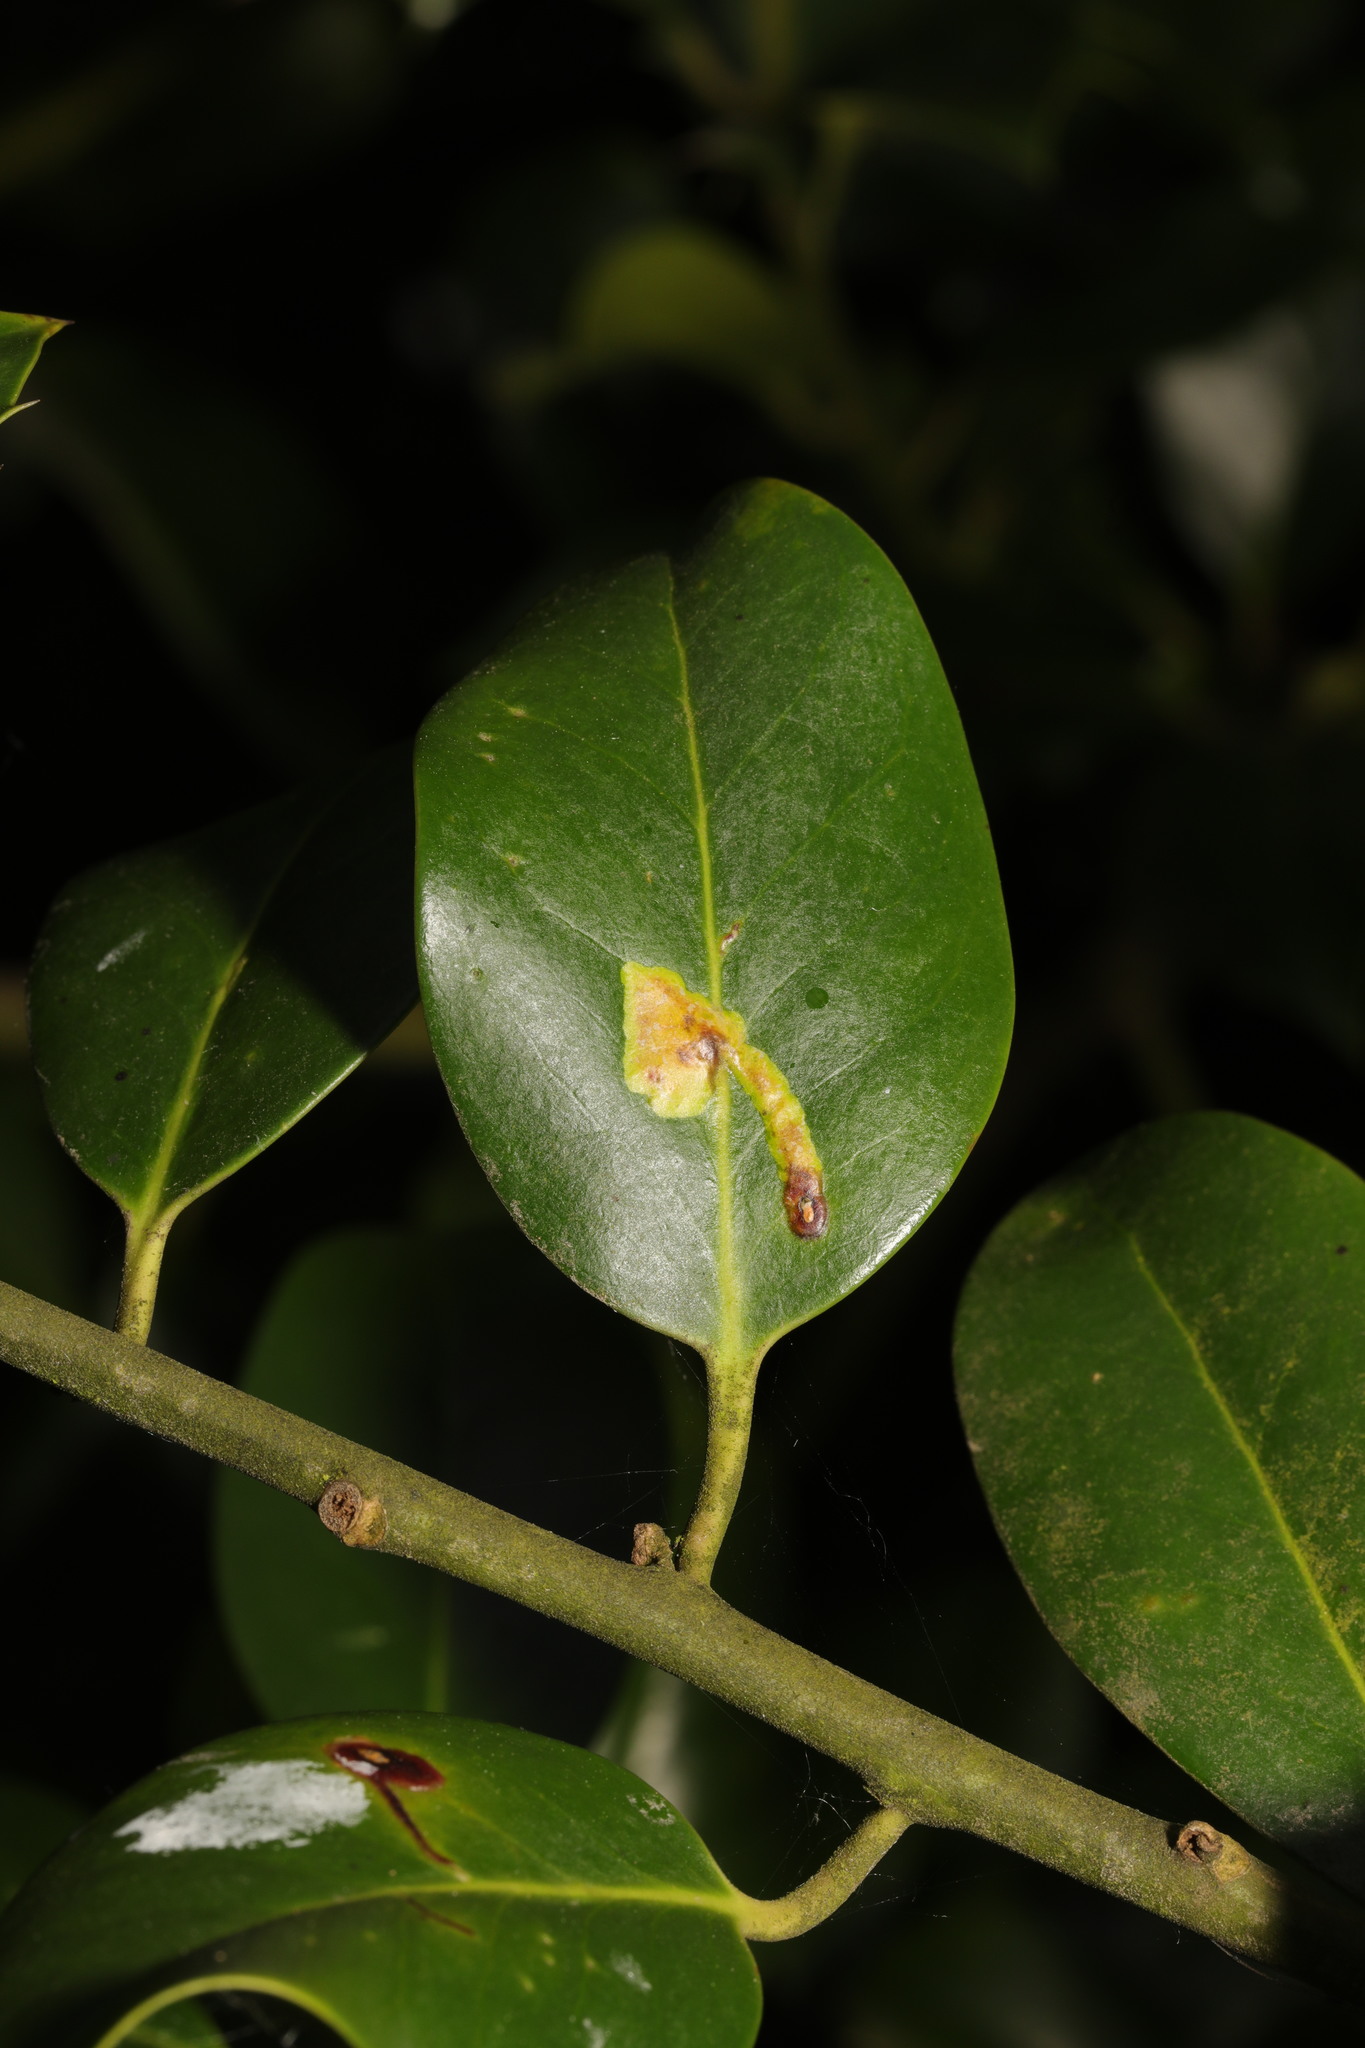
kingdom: Animalia
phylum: Arthropoda
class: Insecta
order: Diptera
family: Agromyzidae
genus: Phytomyza
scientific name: Phytomyza ilicis
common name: Holly leafminer
